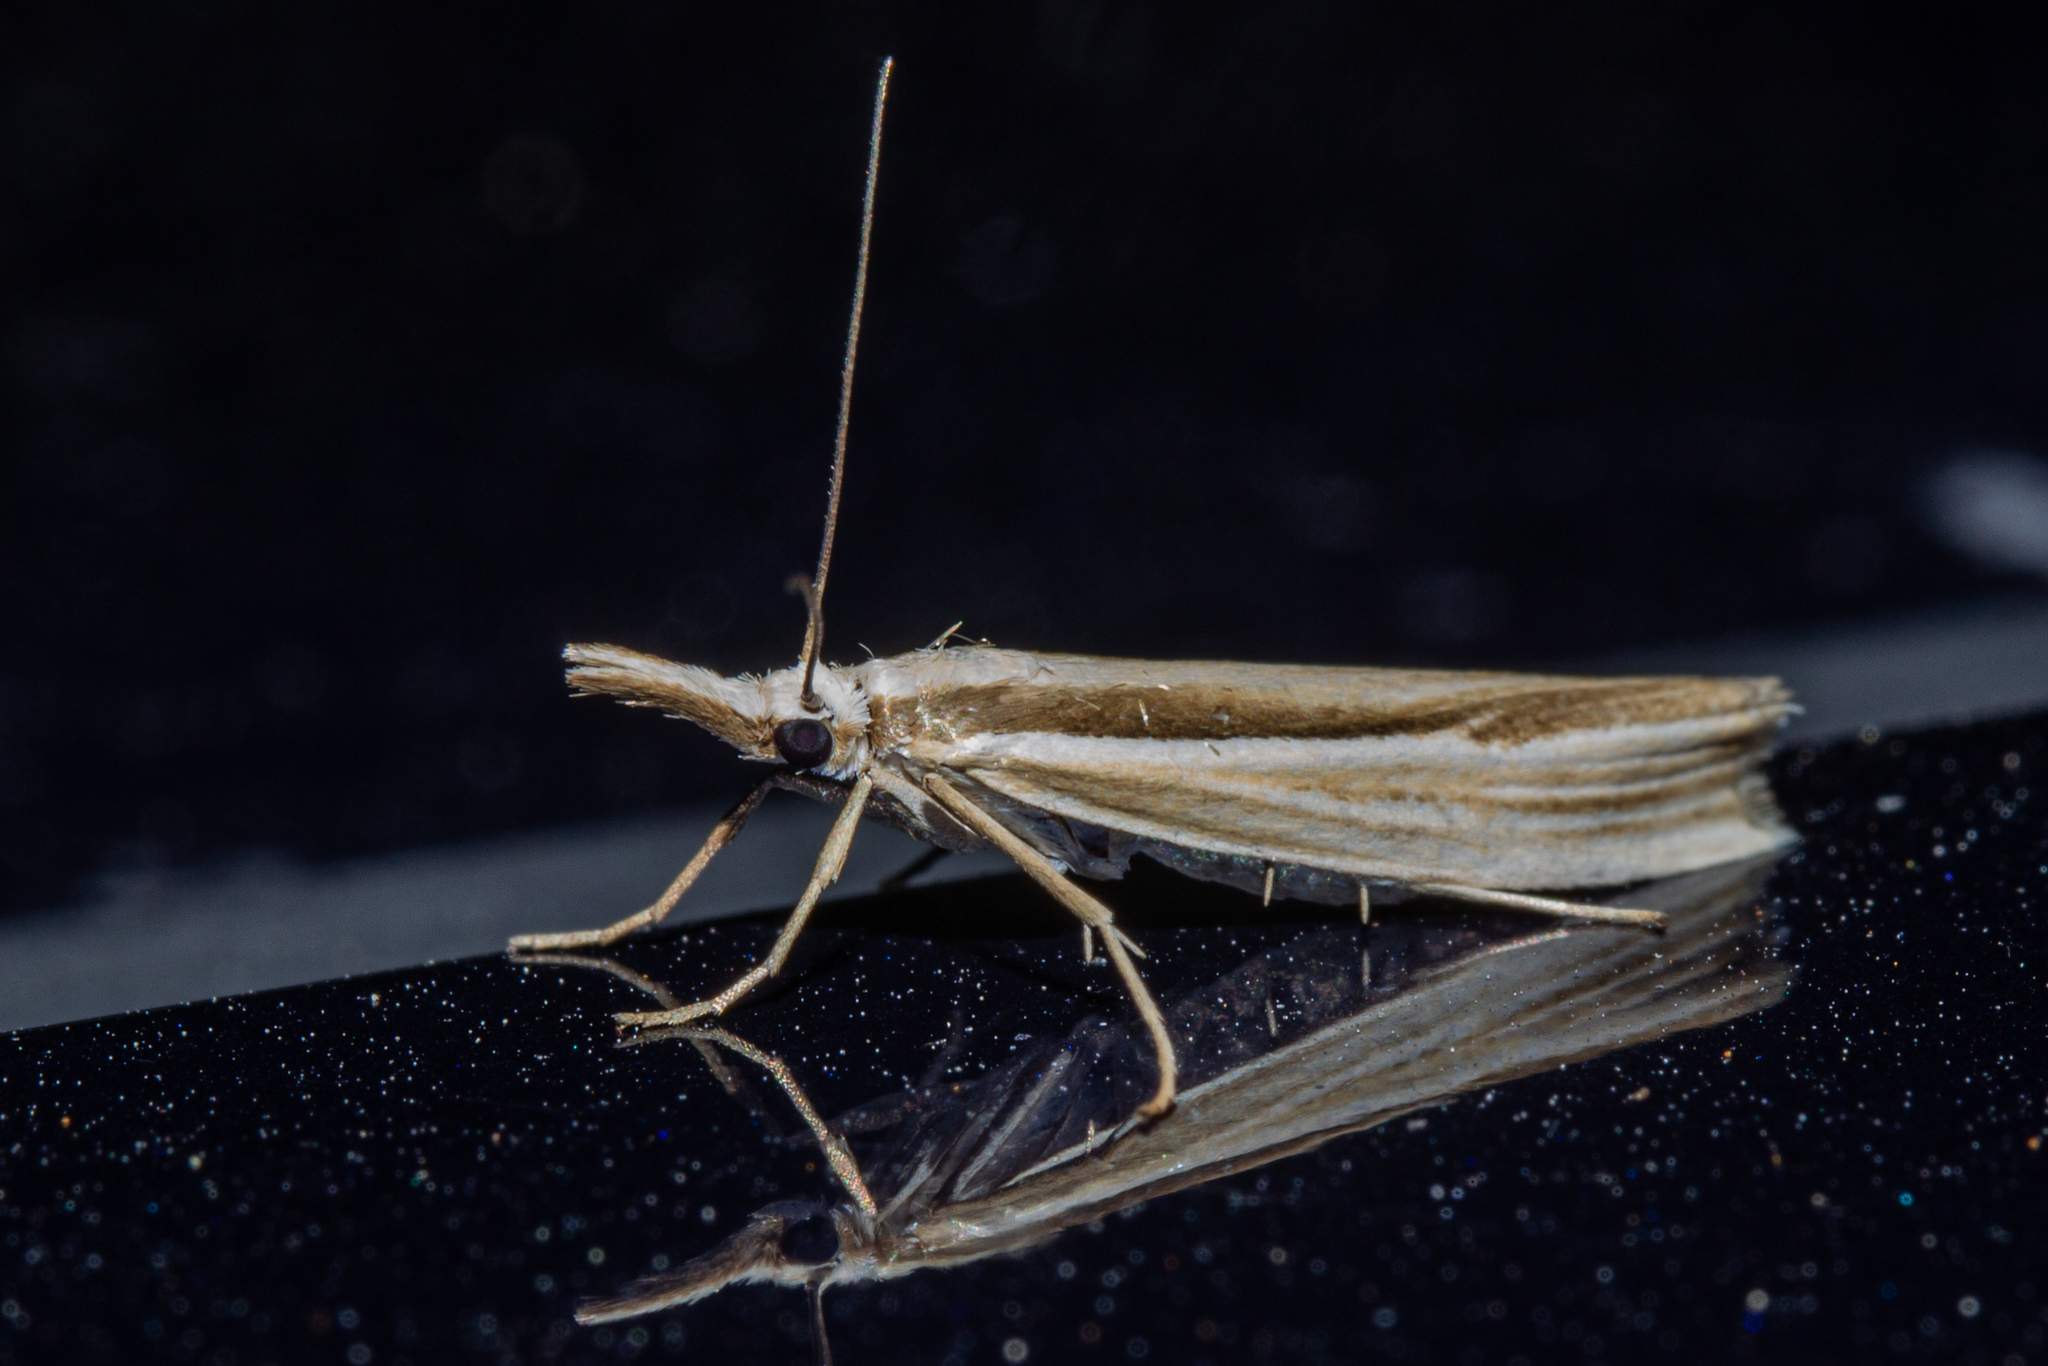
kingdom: Animalia
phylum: Arthropoda
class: Insecta
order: Lepidoptera
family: Crambidae
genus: Orocrambus
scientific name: Orocrambus ramosellus
